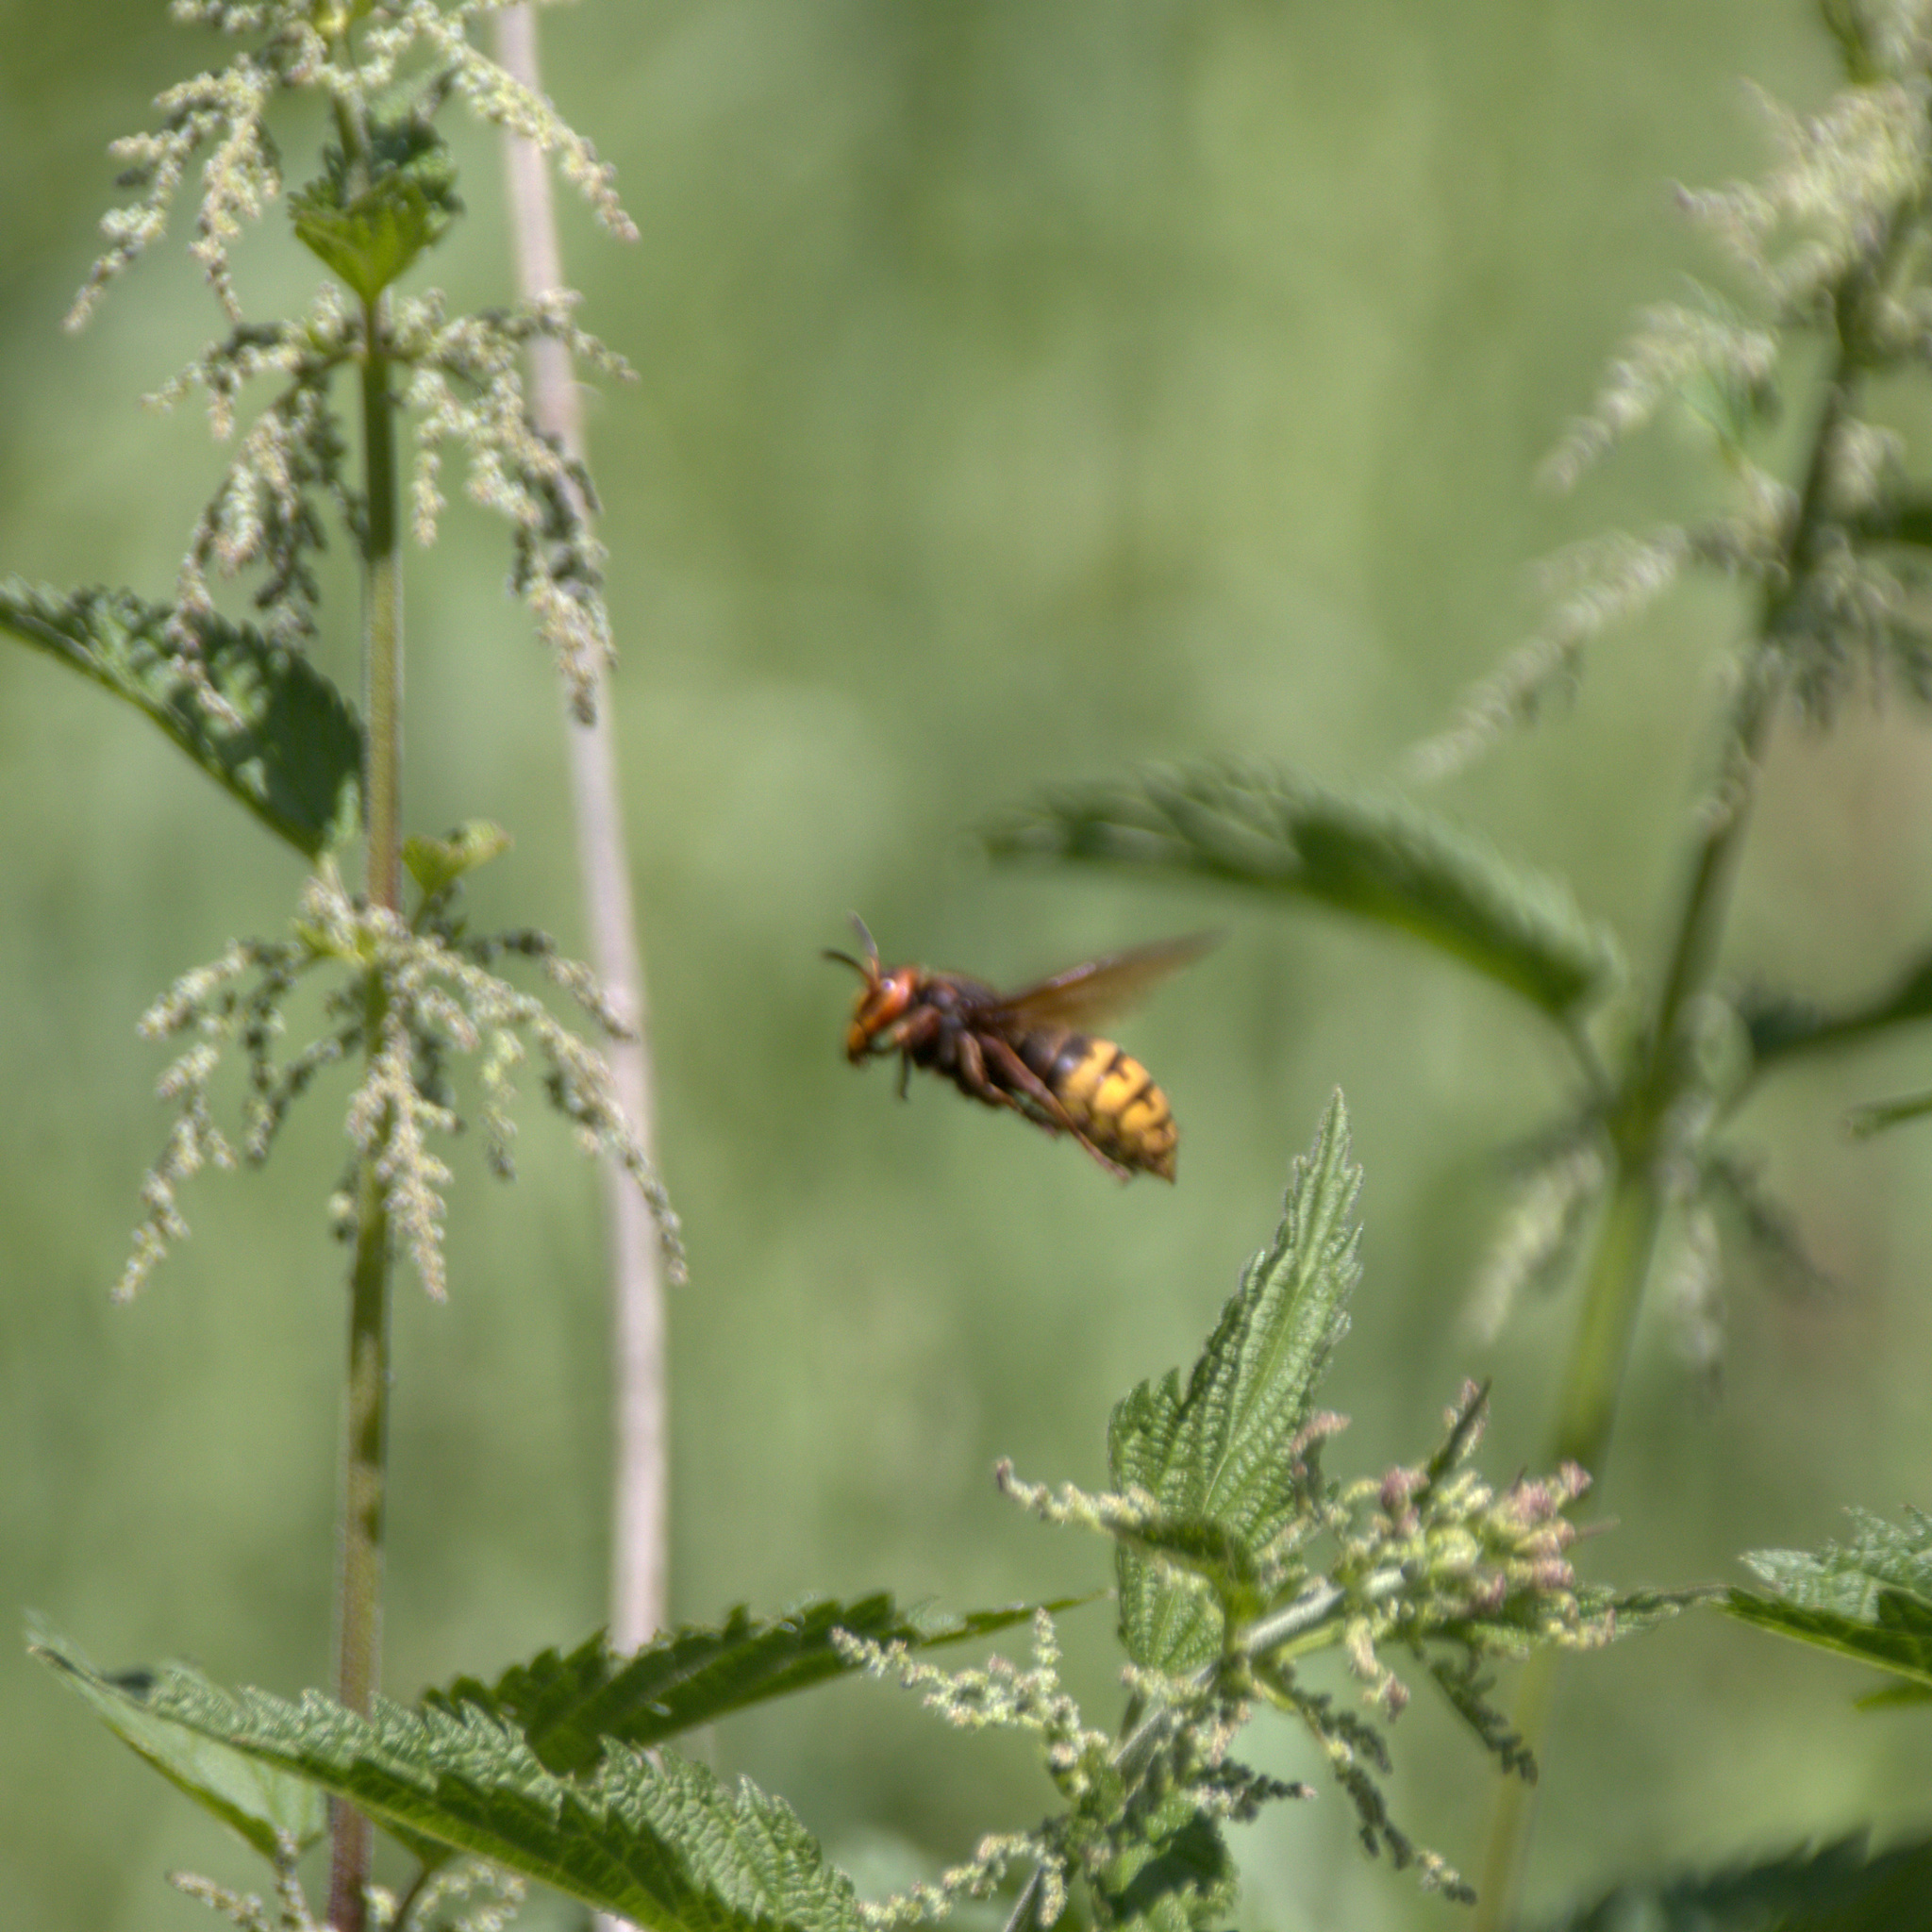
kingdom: Animalia
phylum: Arthropoda
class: Insecta
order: Hymenoptera
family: Vespidae
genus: Vespa
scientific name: Vespa crabro
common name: Hornet
